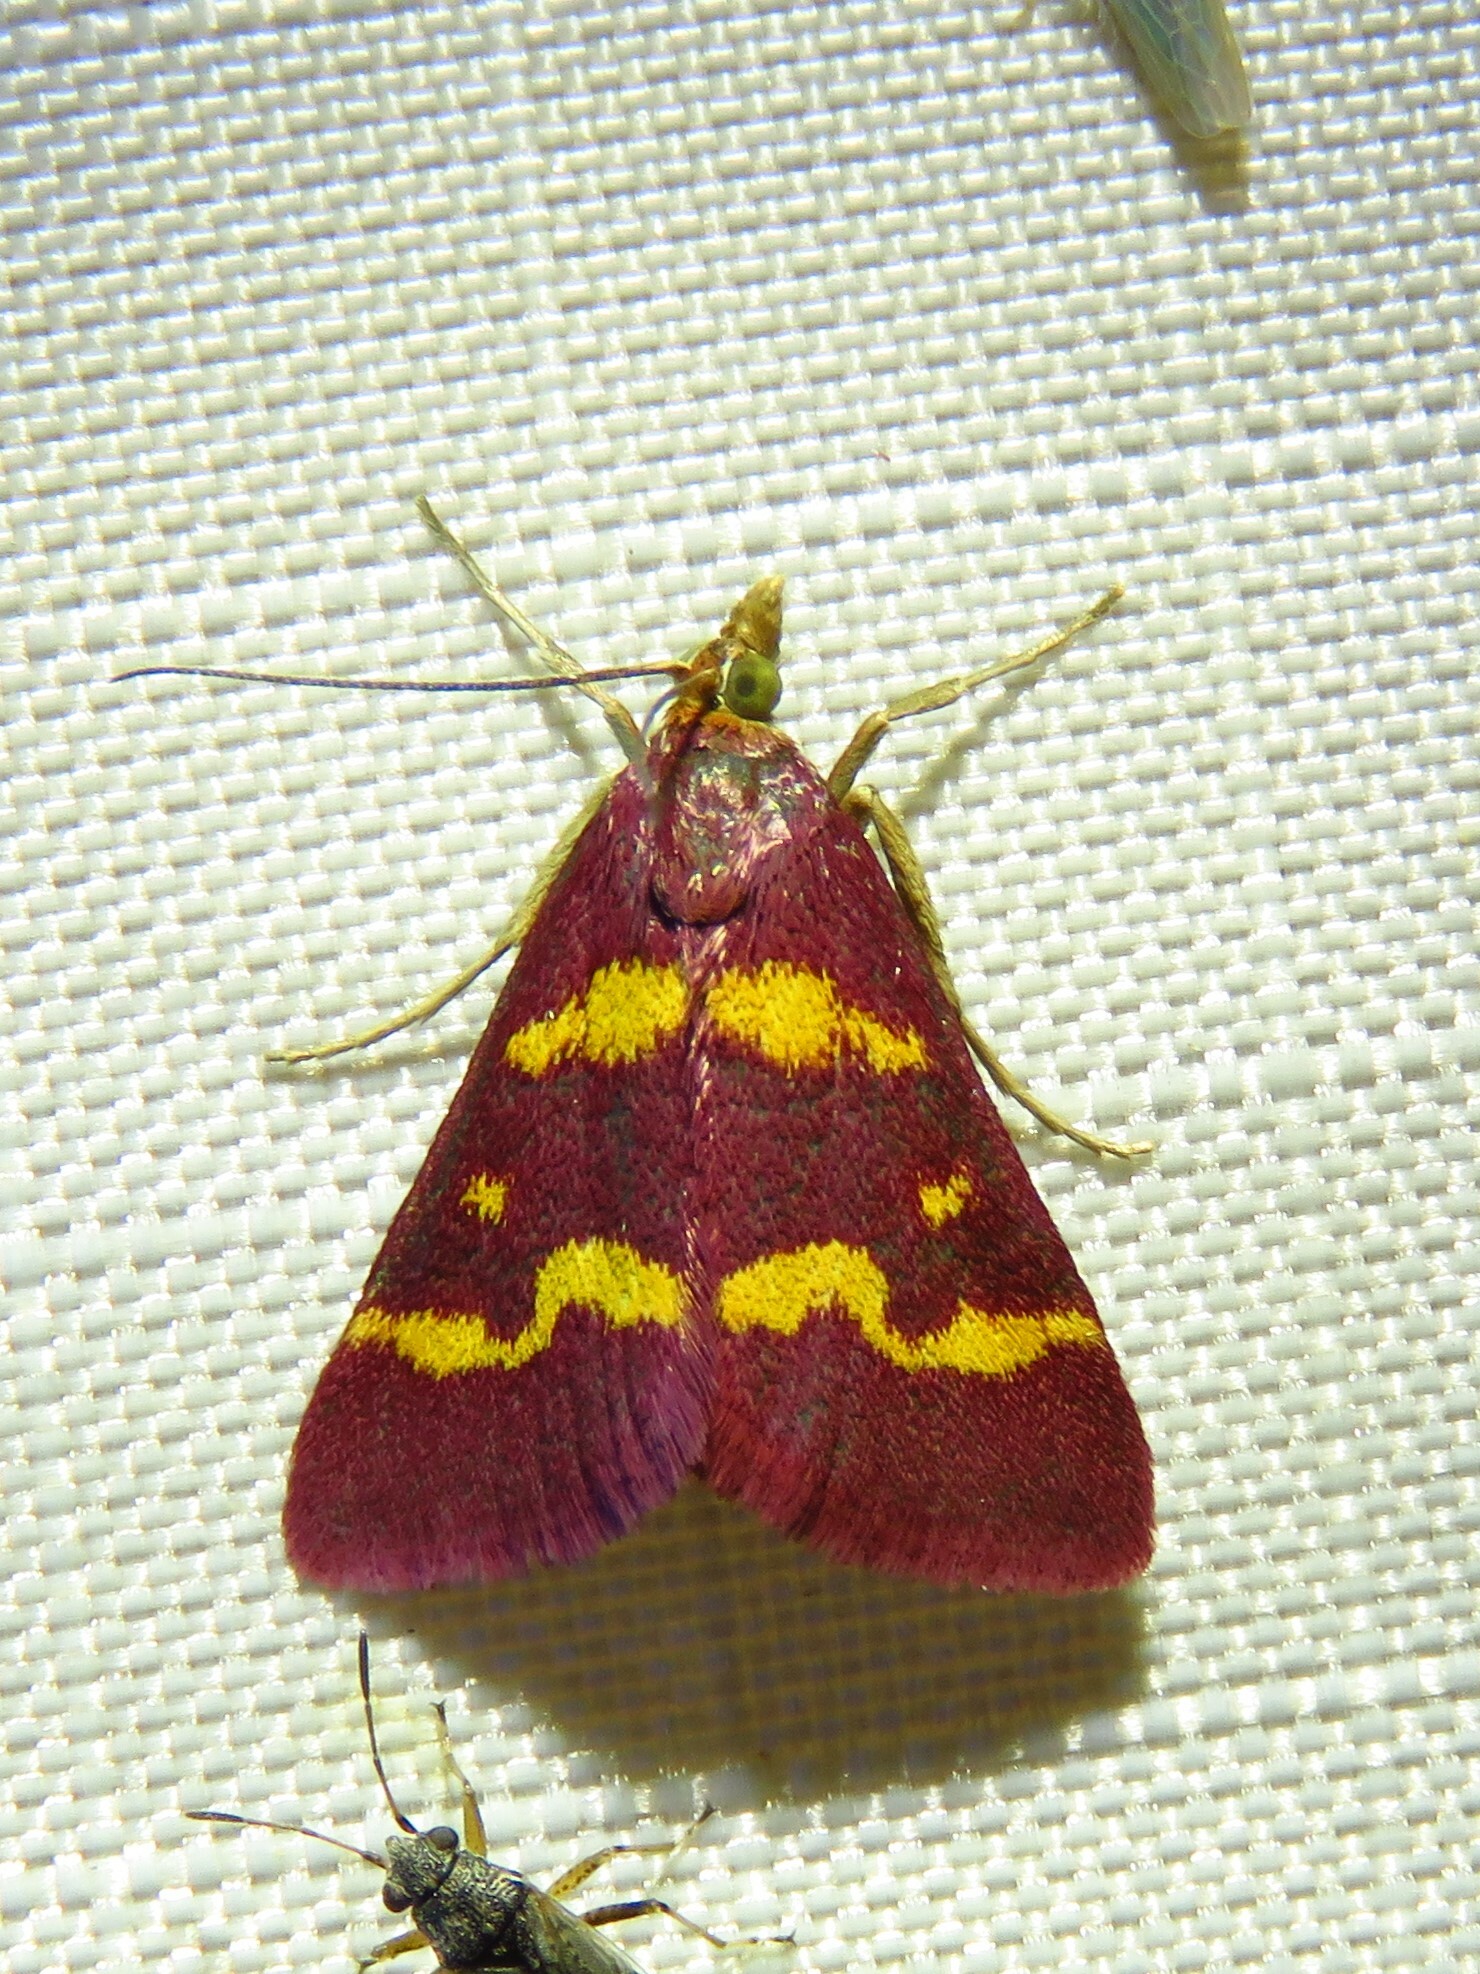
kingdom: Animalia
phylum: Arthropoda
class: Insecta
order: Lepidoptera
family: Crambidae
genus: Pyrausta
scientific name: Pyrausta tyralis
